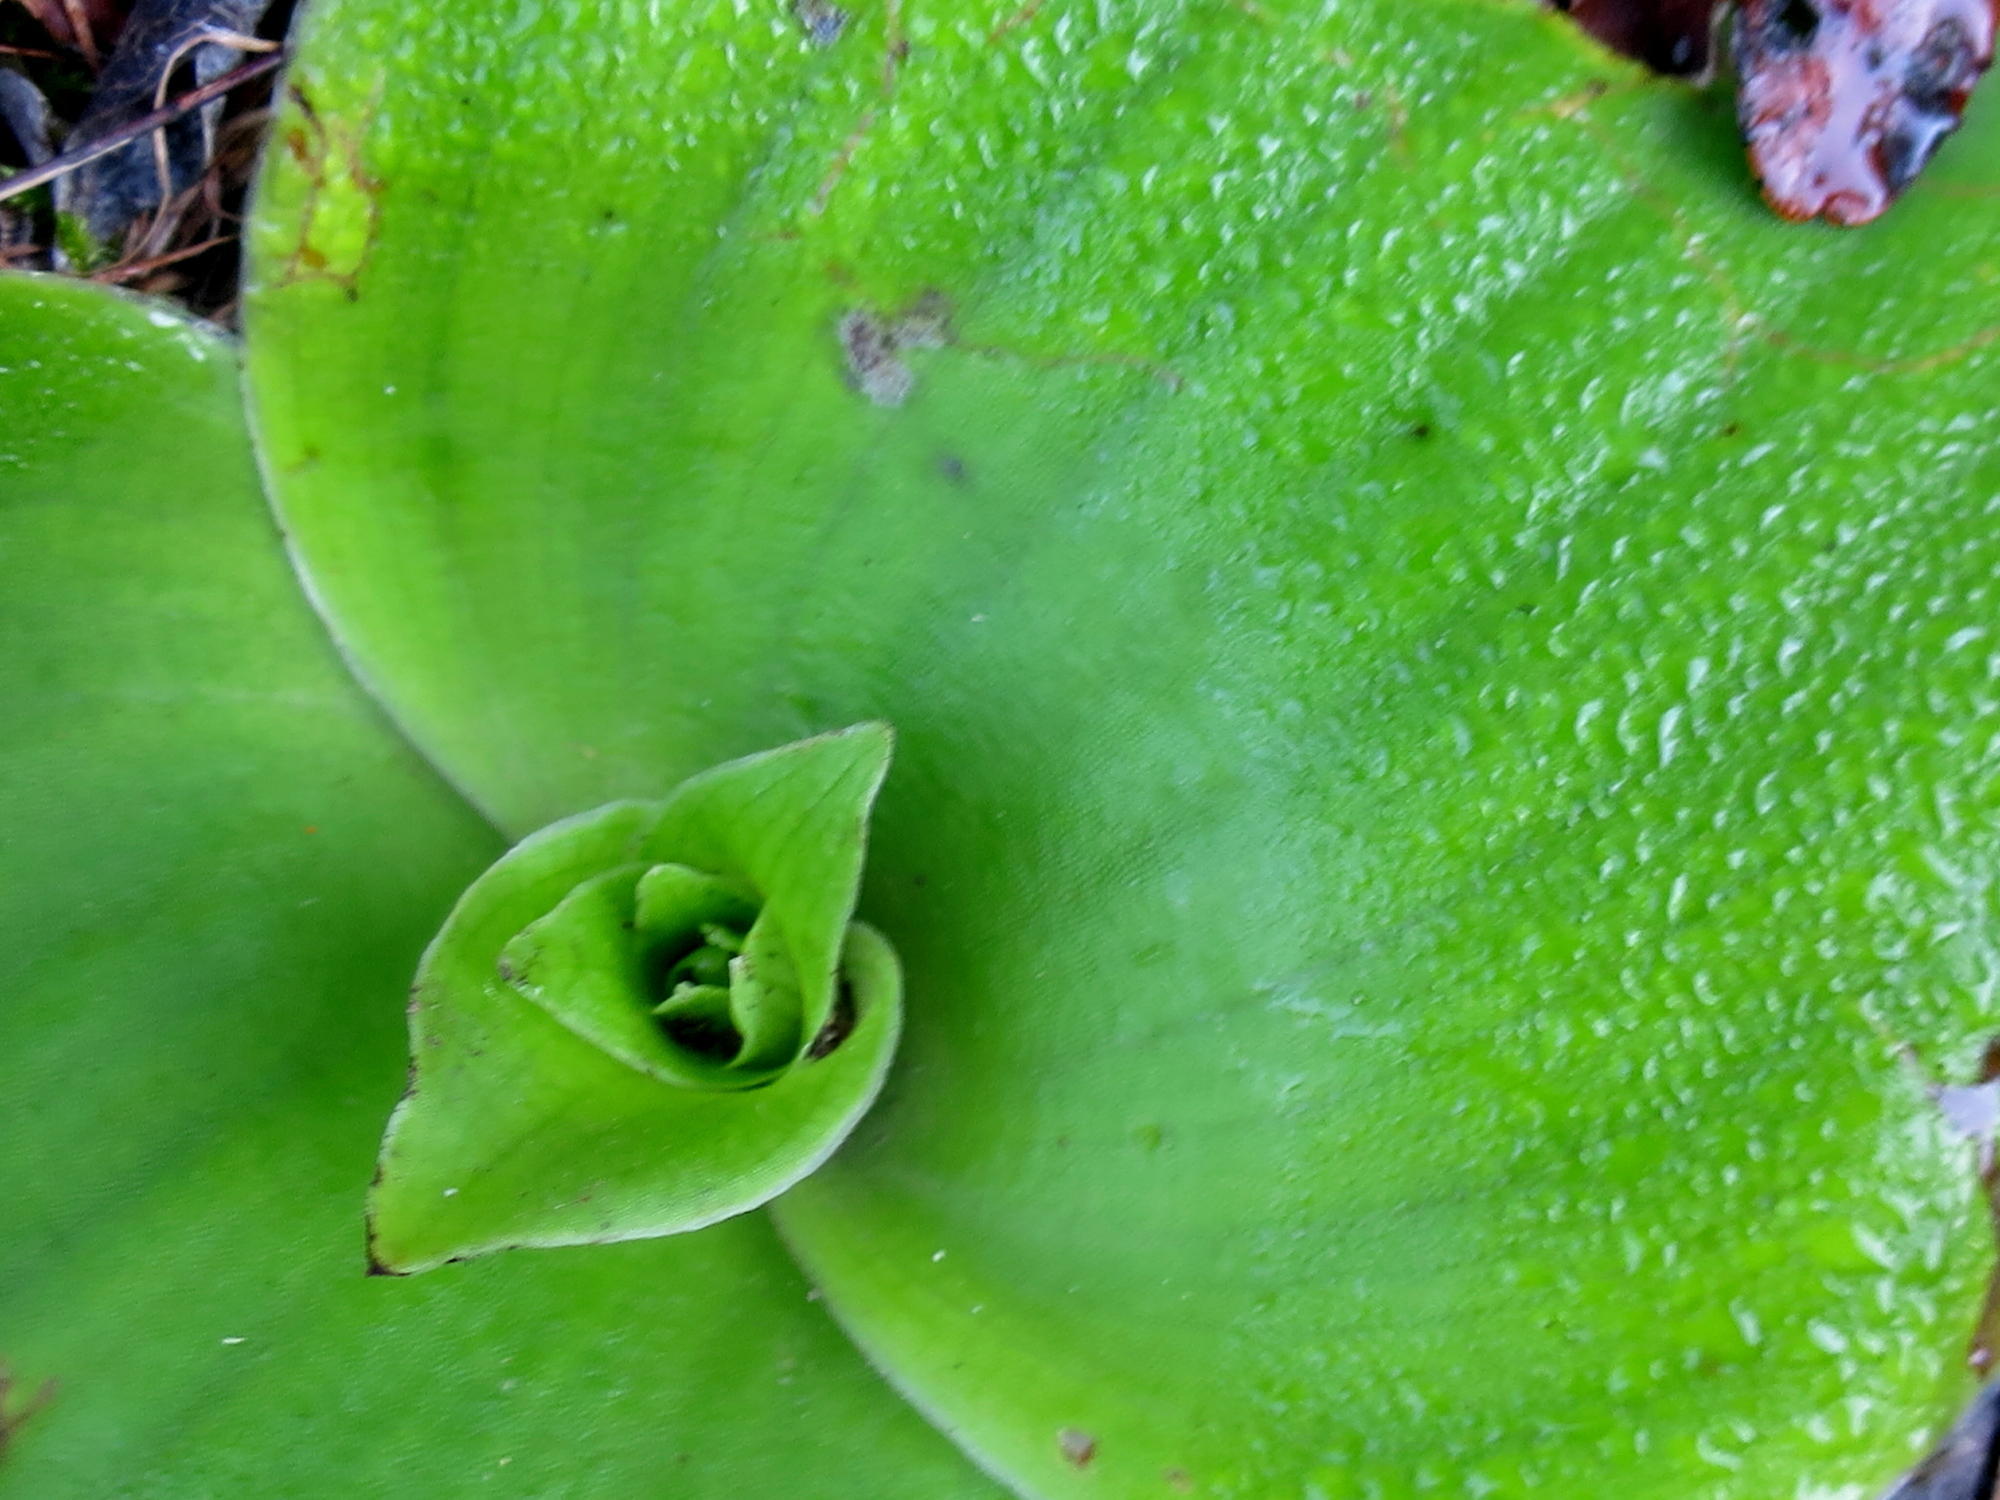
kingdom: Plantae
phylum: Tracheophyta
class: Liliopsida
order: Asparagales
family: Orchidaceae
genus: Satyrium
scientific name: Satyrium princeps
